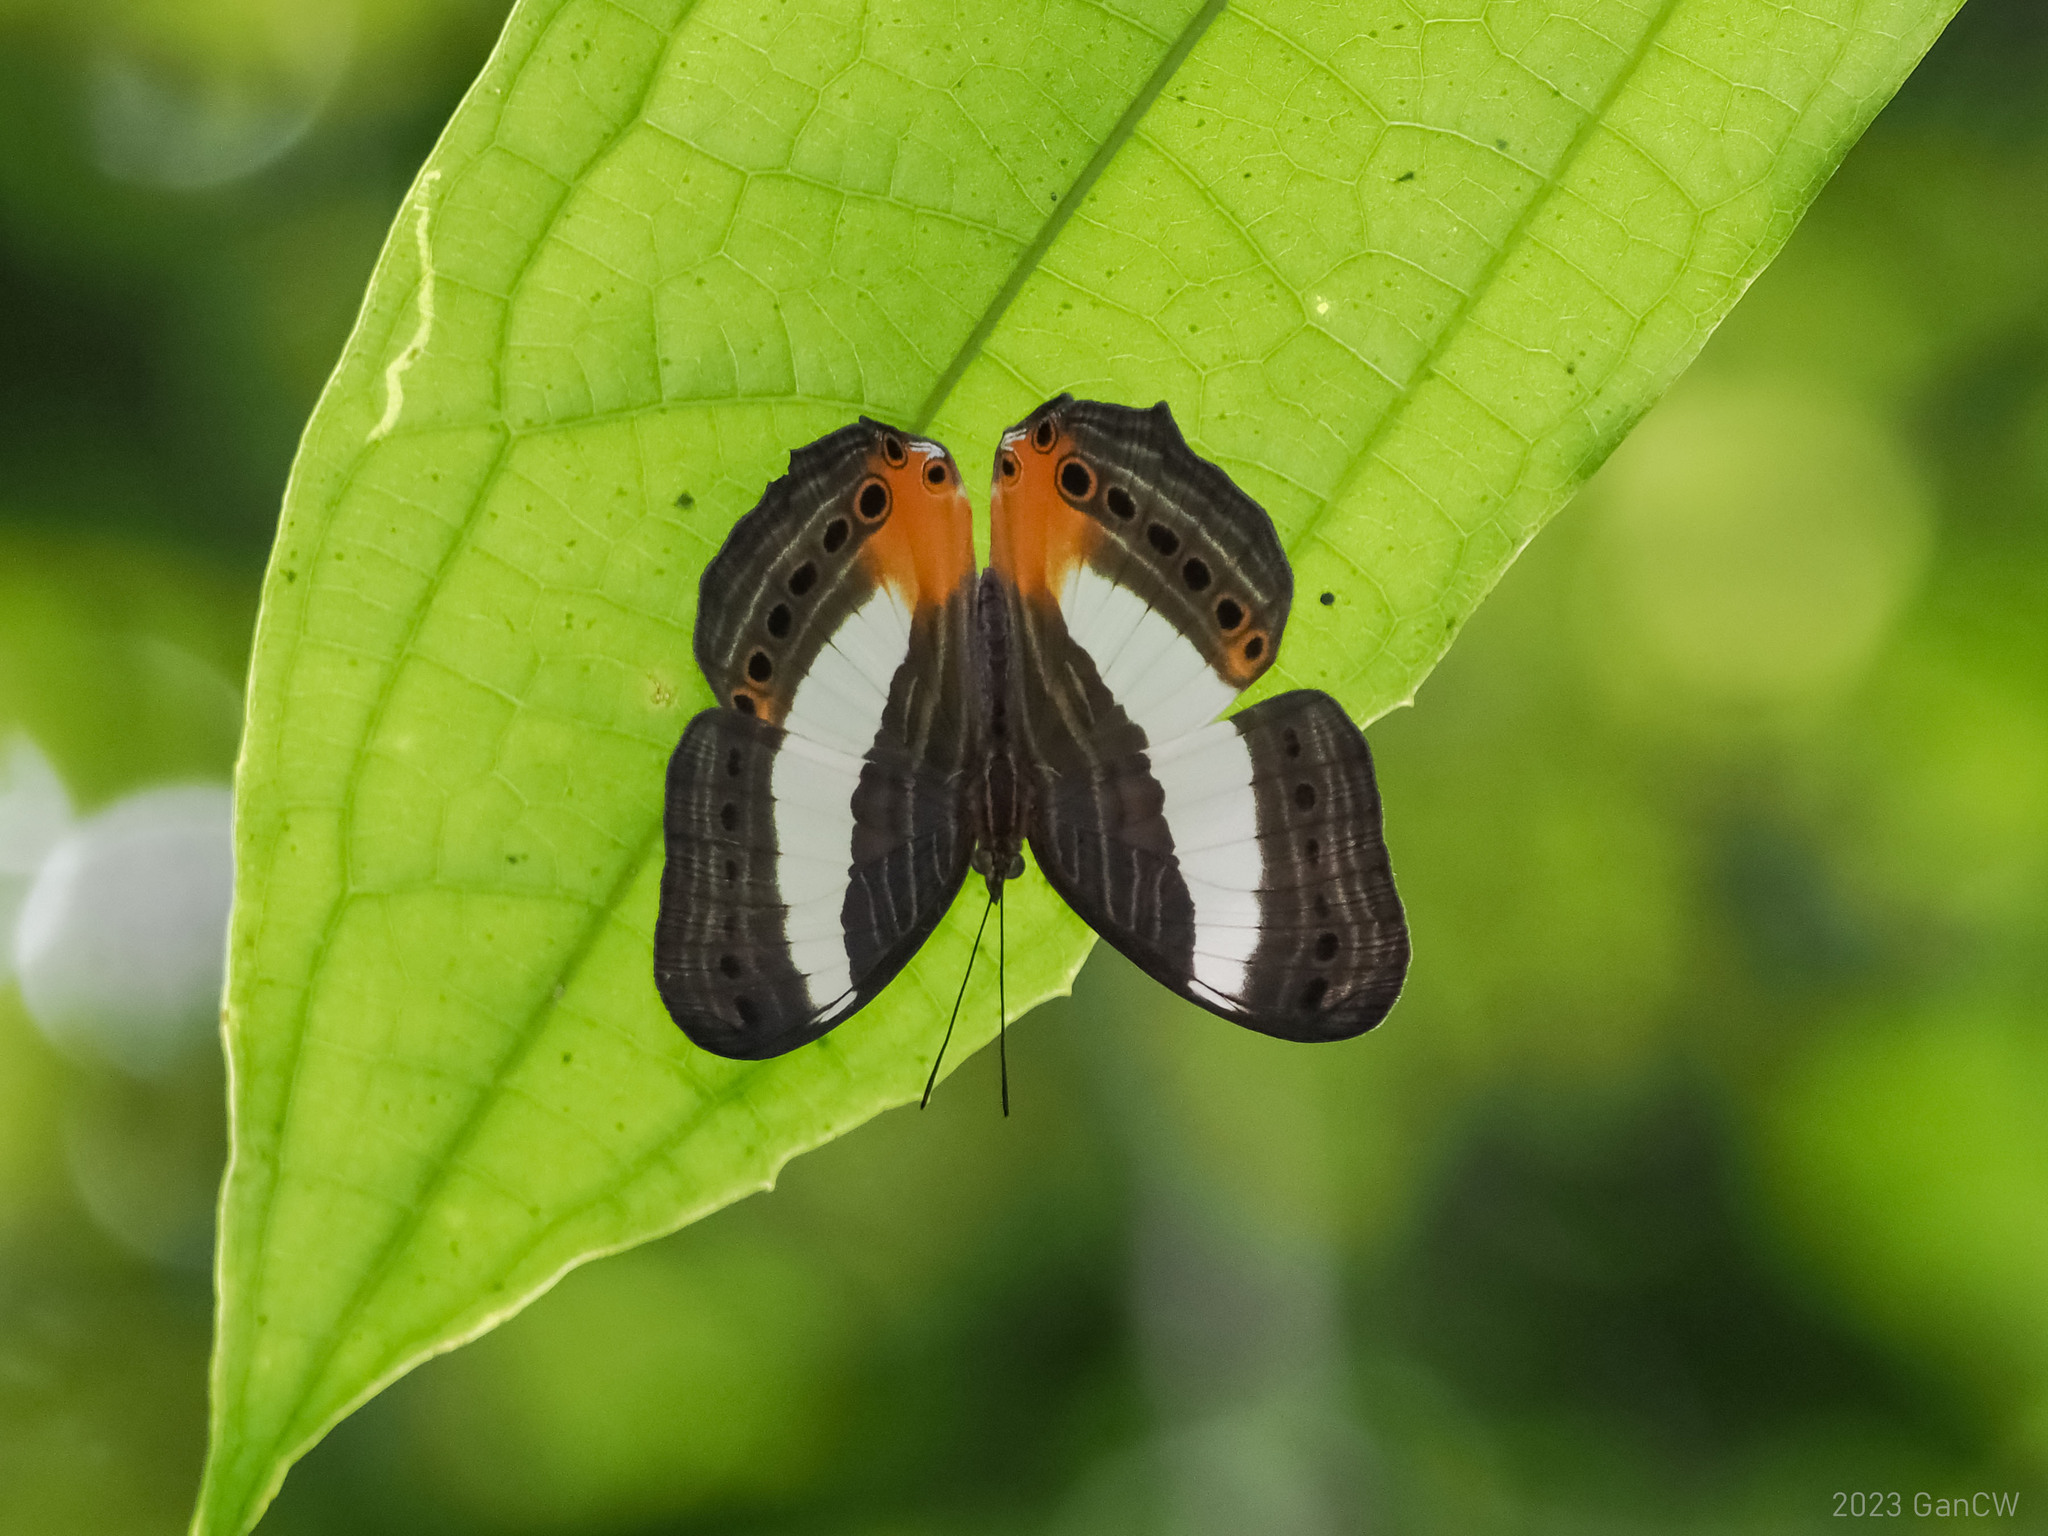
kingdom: Animalia
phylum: Arthropoda
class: Insecta
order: Lepidoptera
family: Nymphalidae
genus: Cyrestis
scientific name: Cyrestis acilia
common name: Godart's map butterfly
